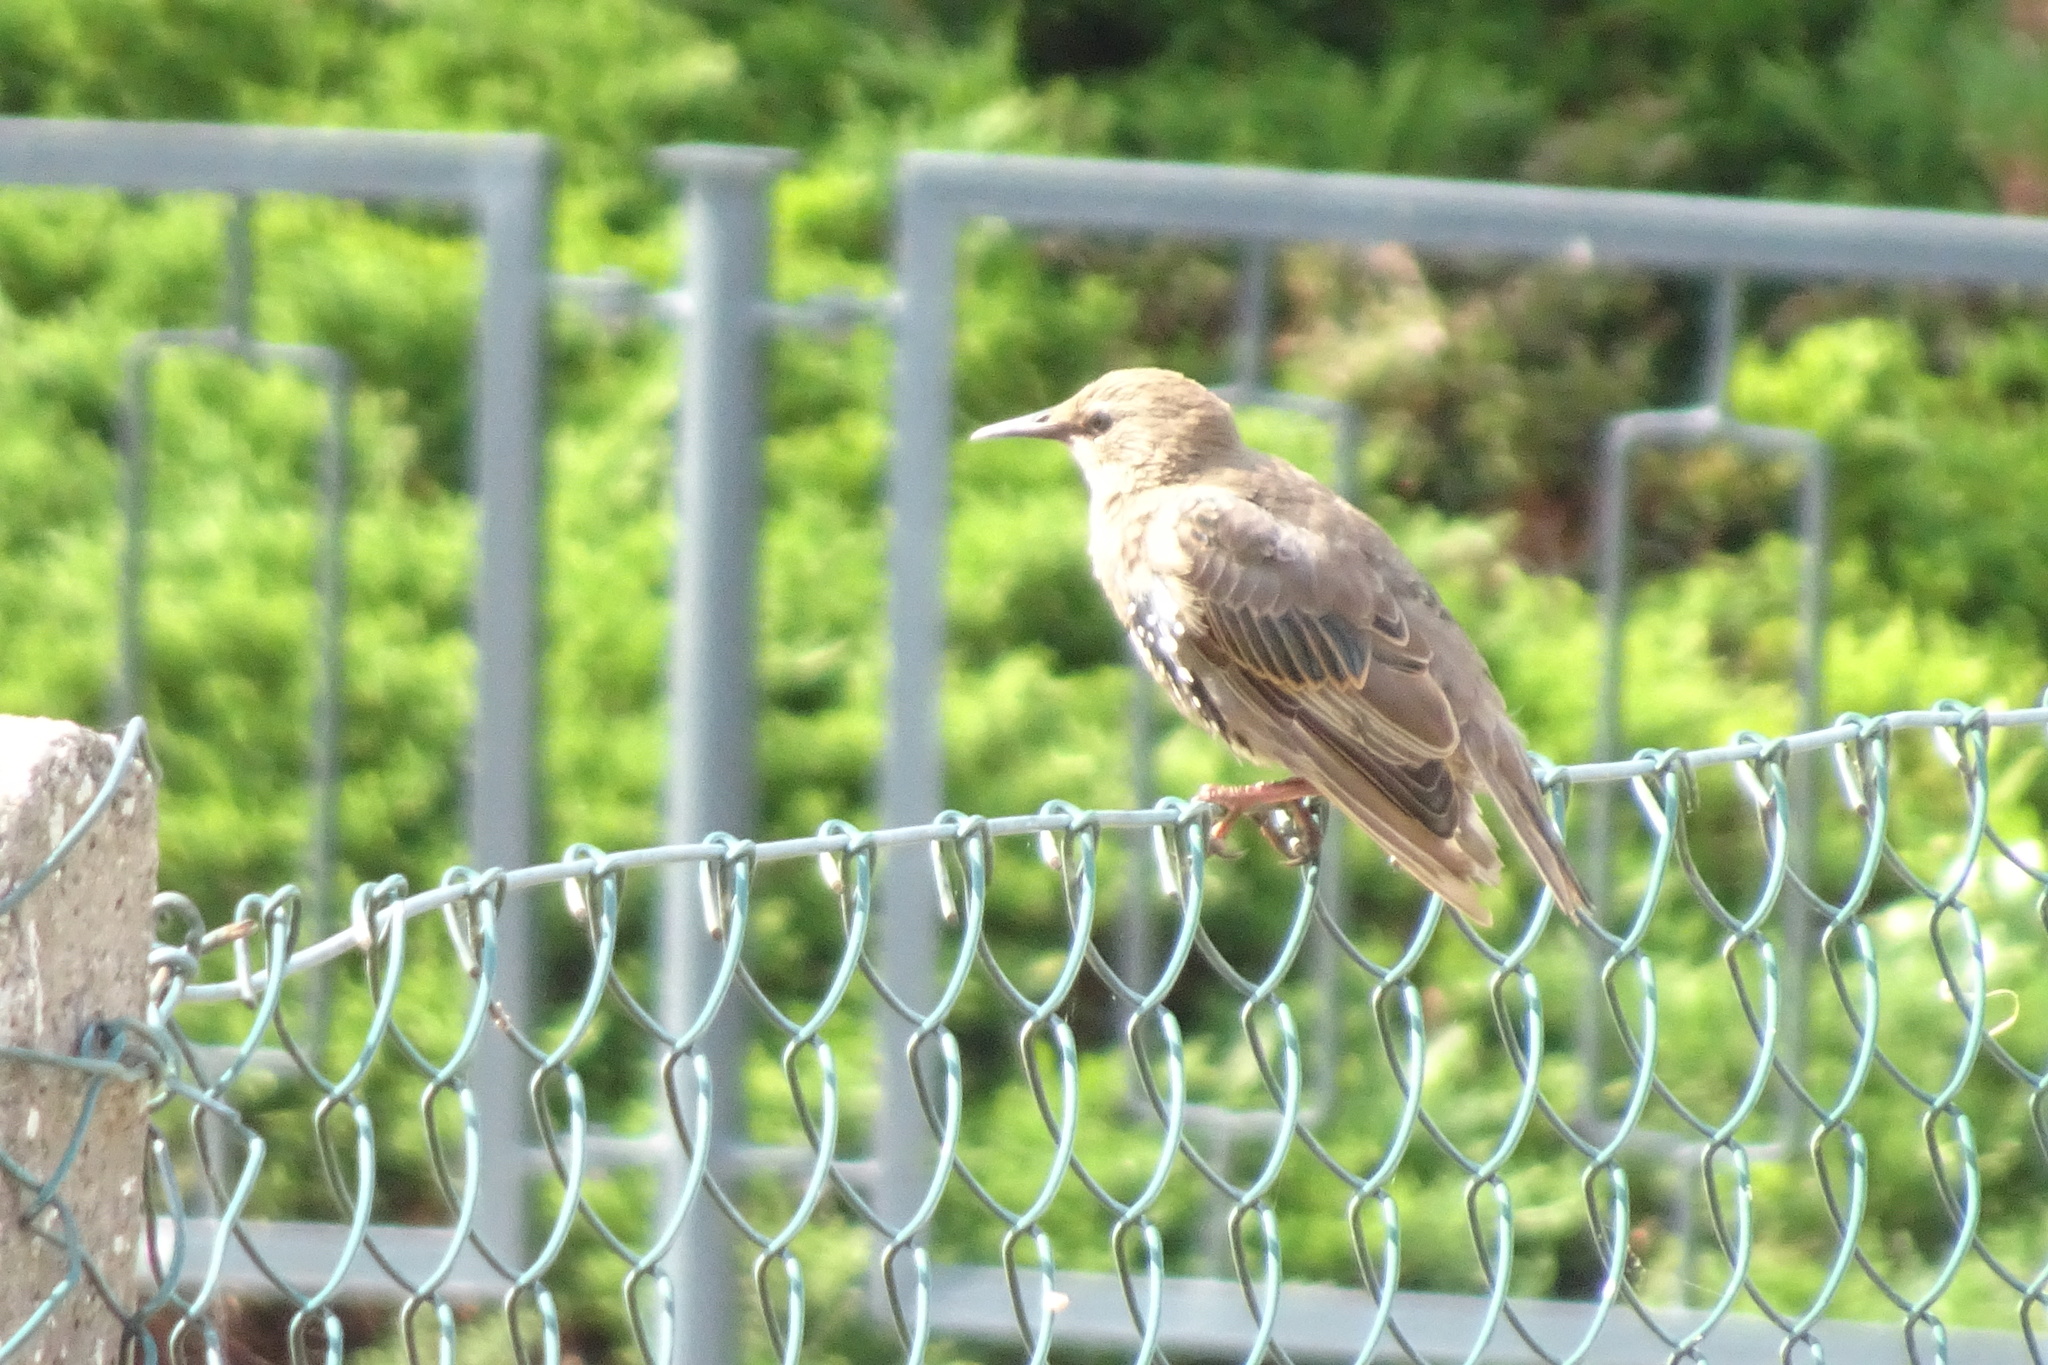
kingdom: Animalia
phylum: Chordata
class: Aves
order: Passeriformes
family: Sturnidae
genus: Sturnus
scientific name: Sturnus vulgaris
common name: Common starling
